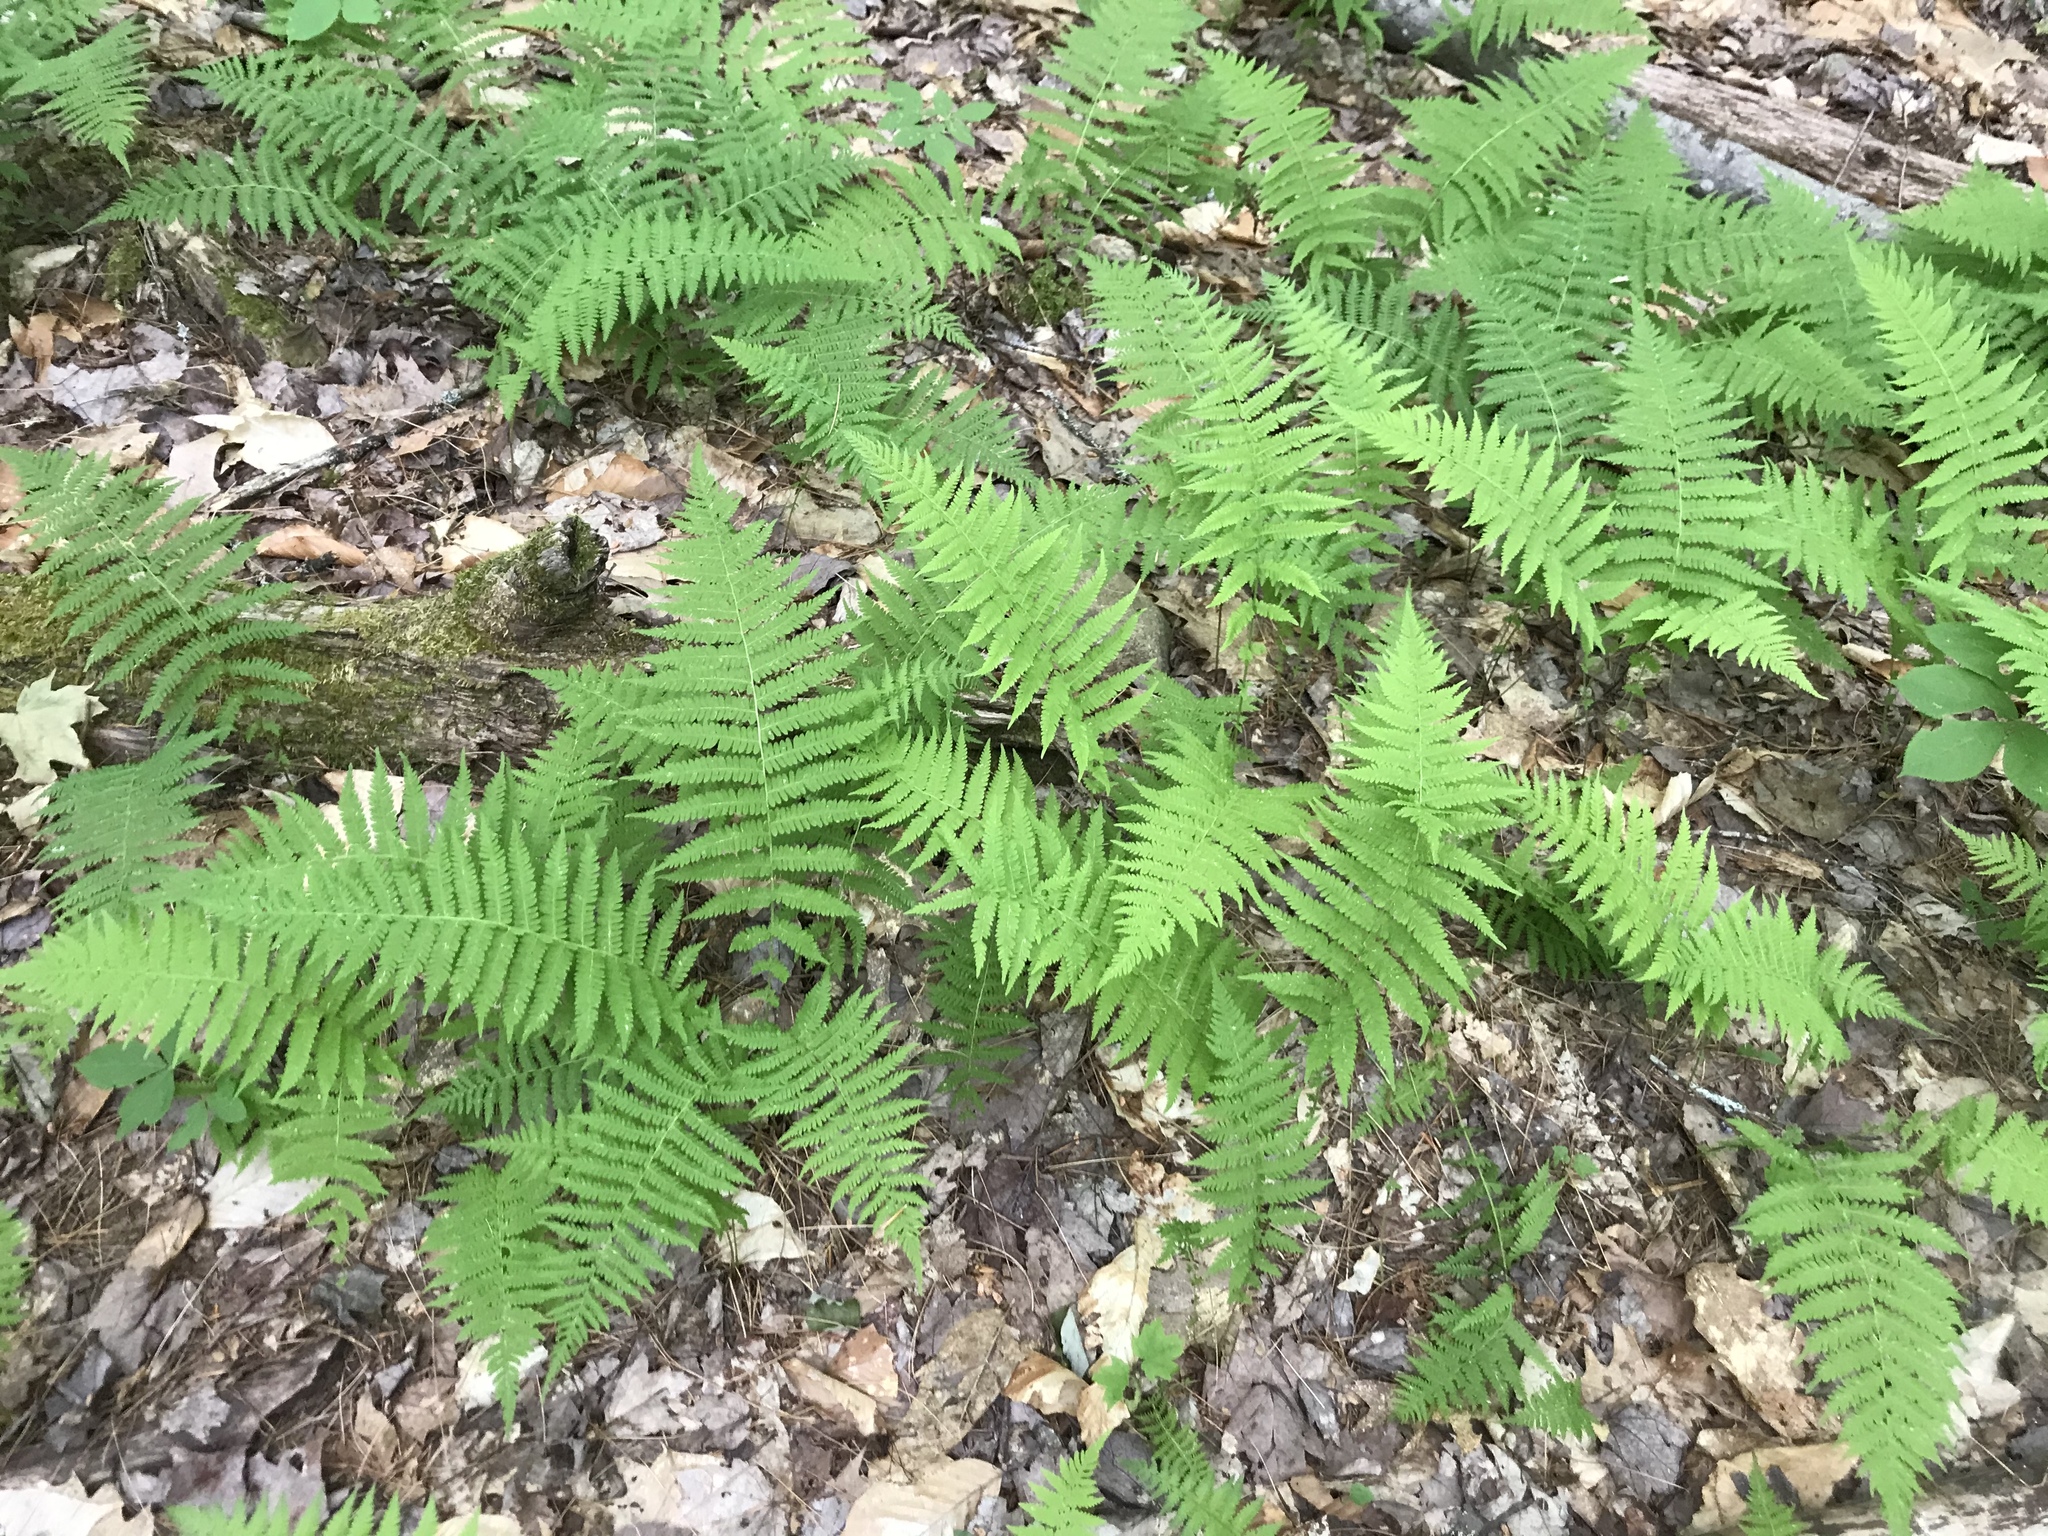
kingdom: Plantae
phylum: Tracheophyta
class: Polypodiopsida
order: Polypodiales
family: Thelypteridaceae
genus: Amauropelta
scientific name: Amauropelta noveboracensis
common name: New york fern
